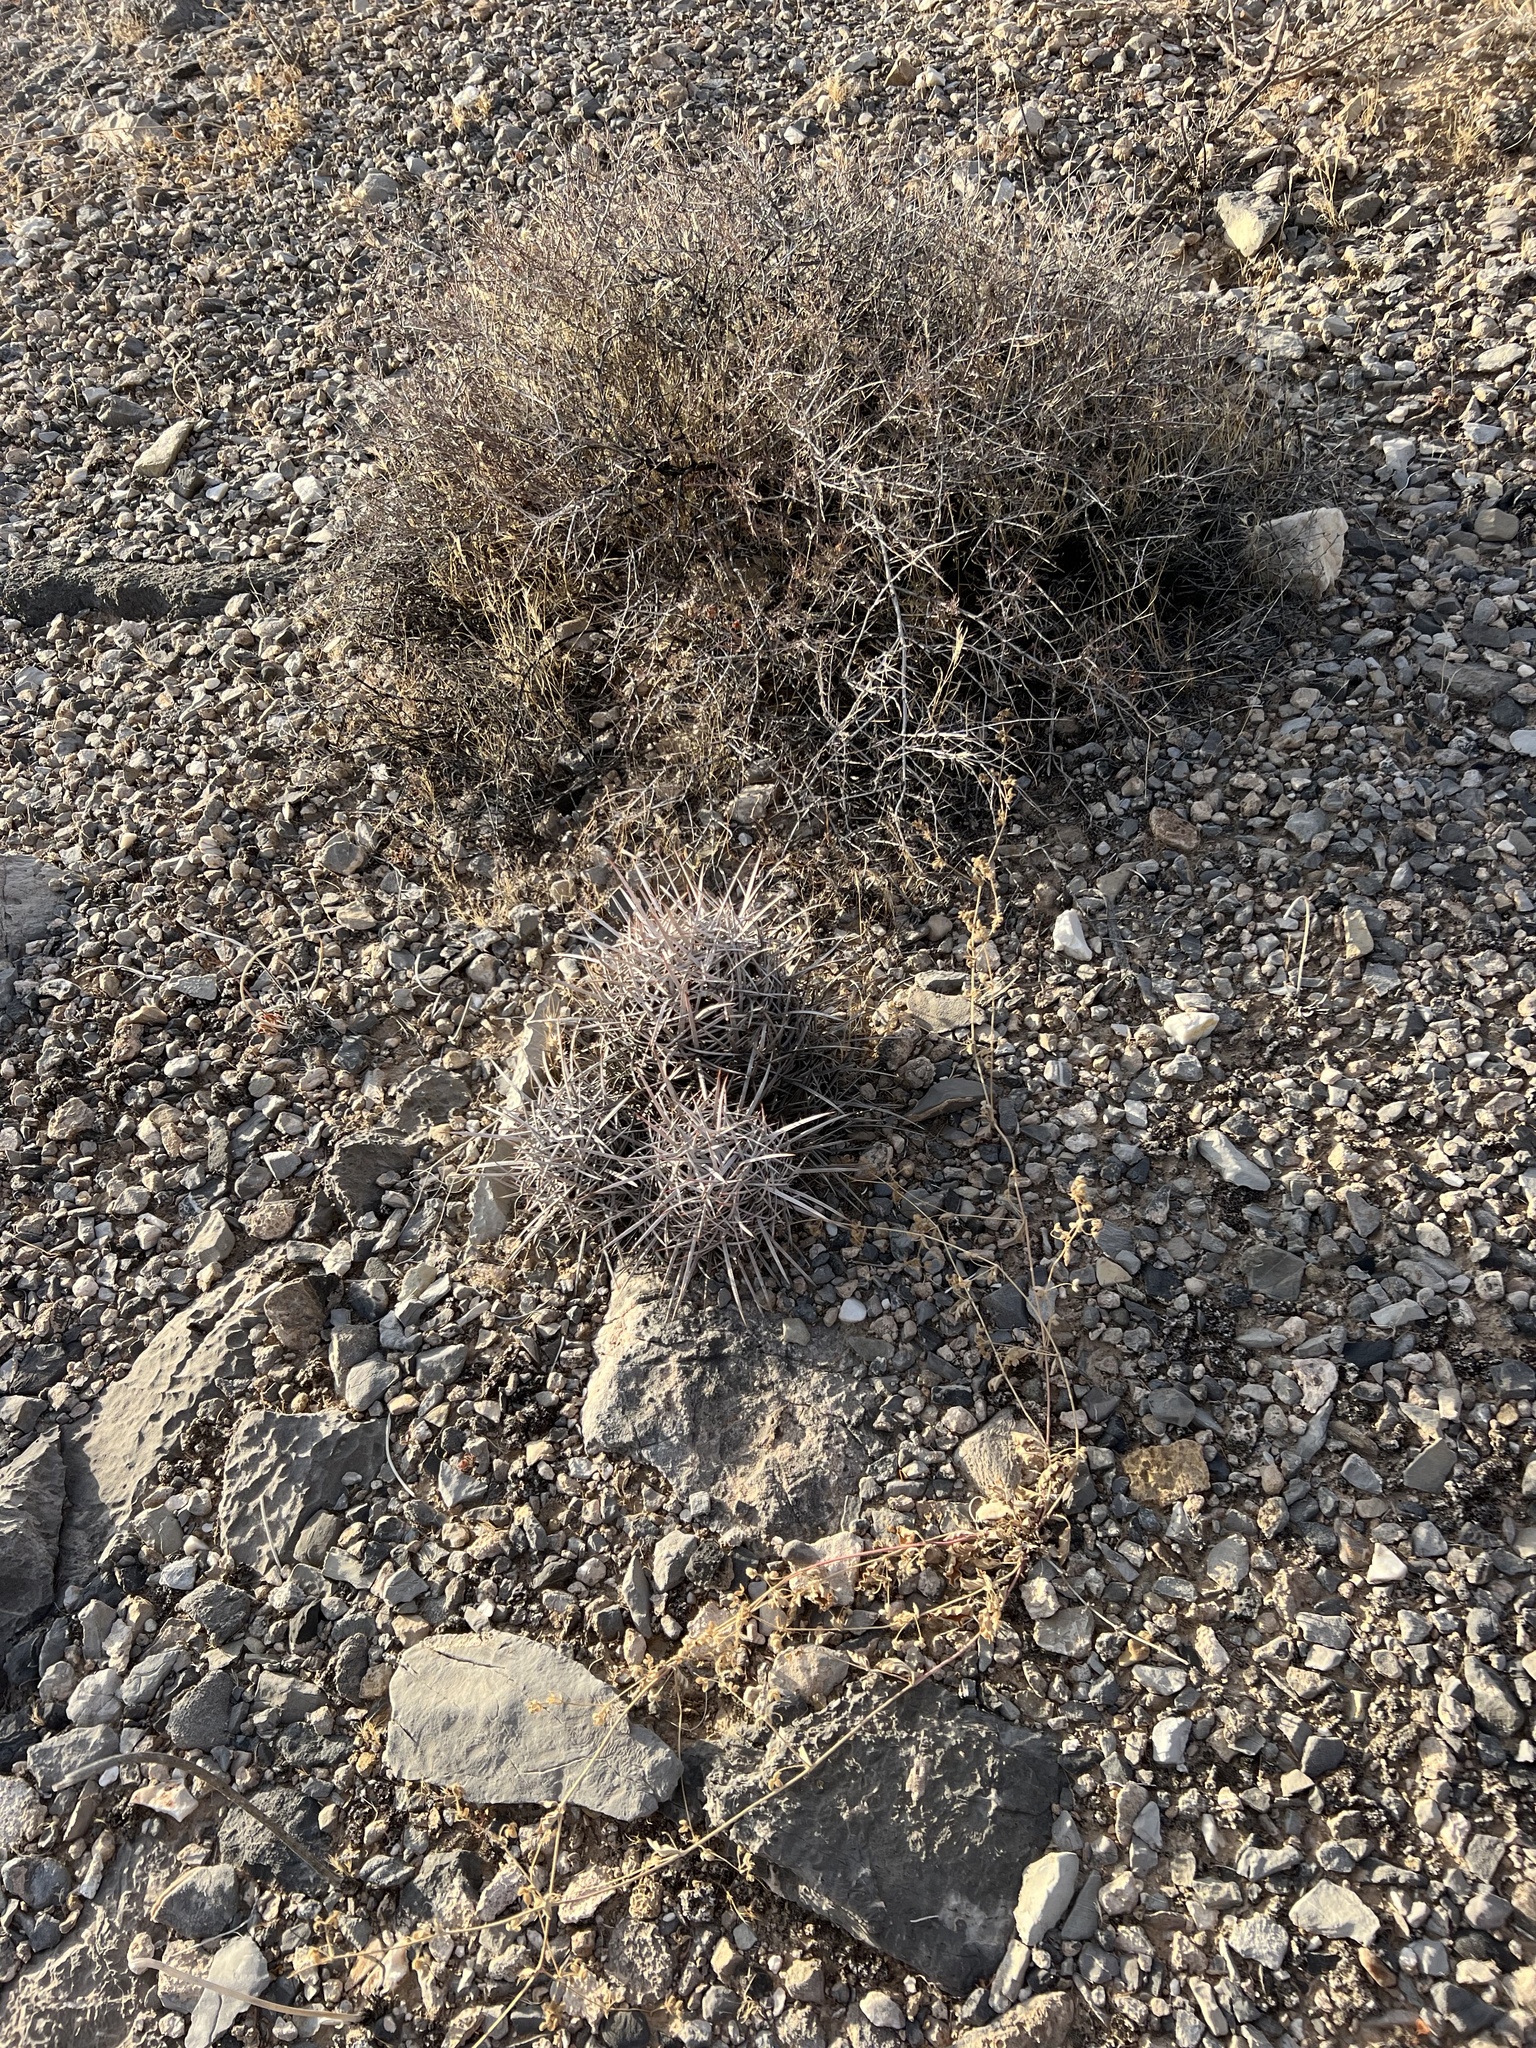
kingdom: Plantae
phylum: Tracheophyta
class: Magnoliopsida
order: Caryophyllales
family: Cactaceae
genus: Echinocactus
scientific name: Echinocactus polycephalus
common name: Cottontop cactus
